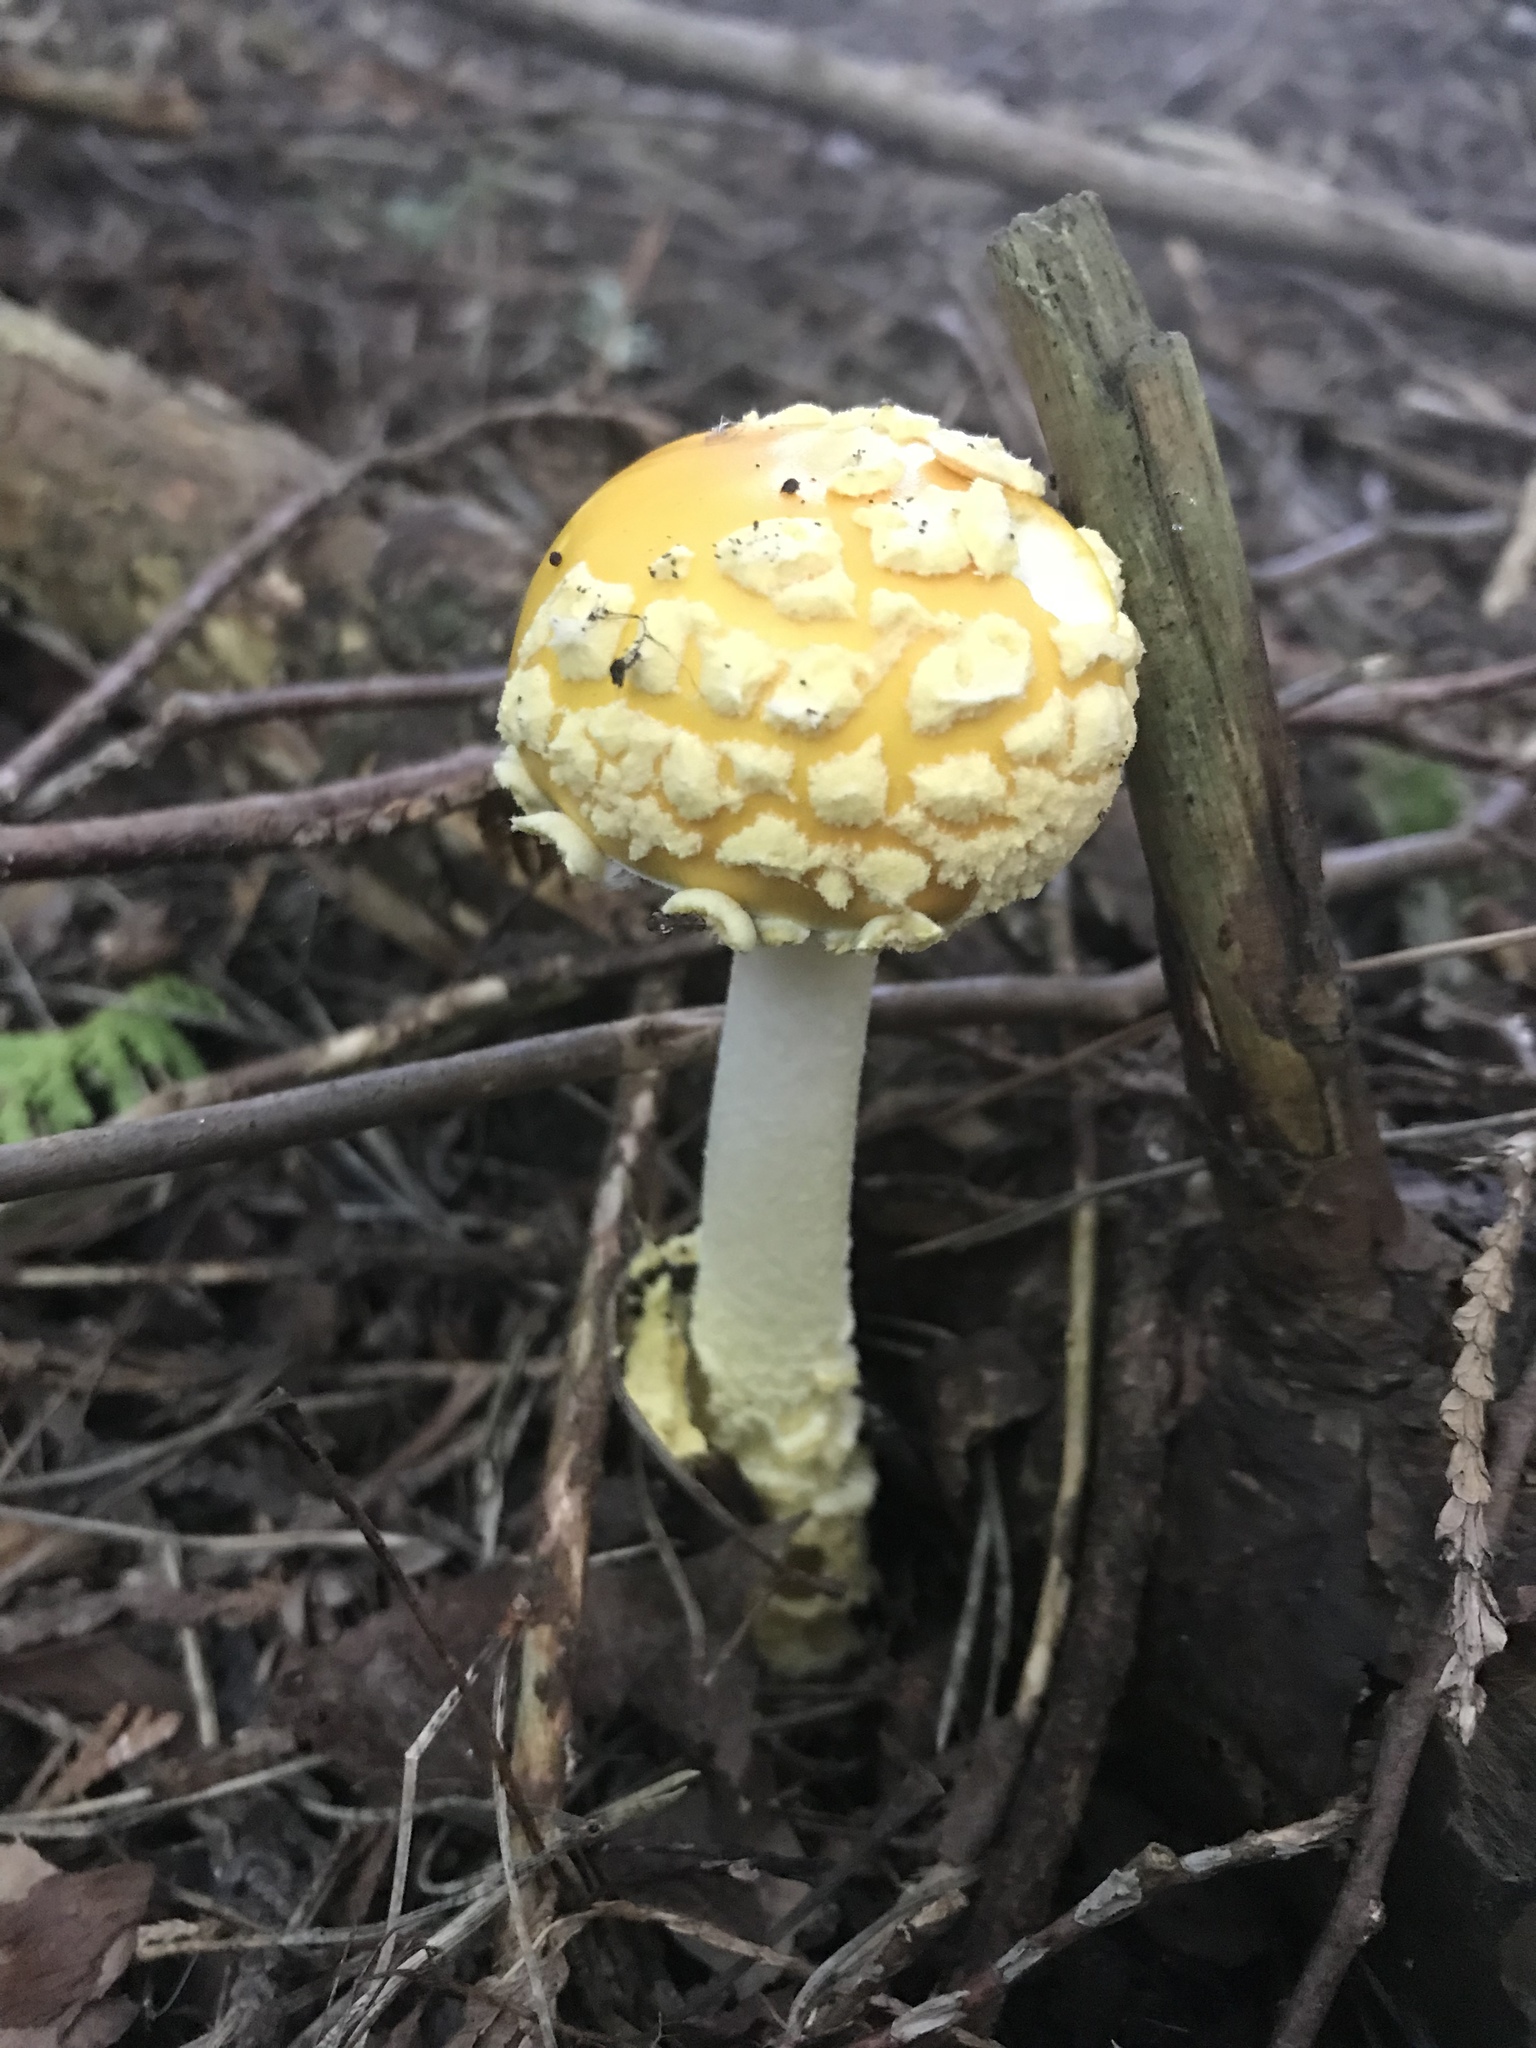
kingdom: Fungi
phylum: Basidiomycota
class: Agaricomycetes
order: Agaricales
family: Amanitaceae
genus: Amanita
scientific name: Amanita muscaria
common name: Fly agaric
